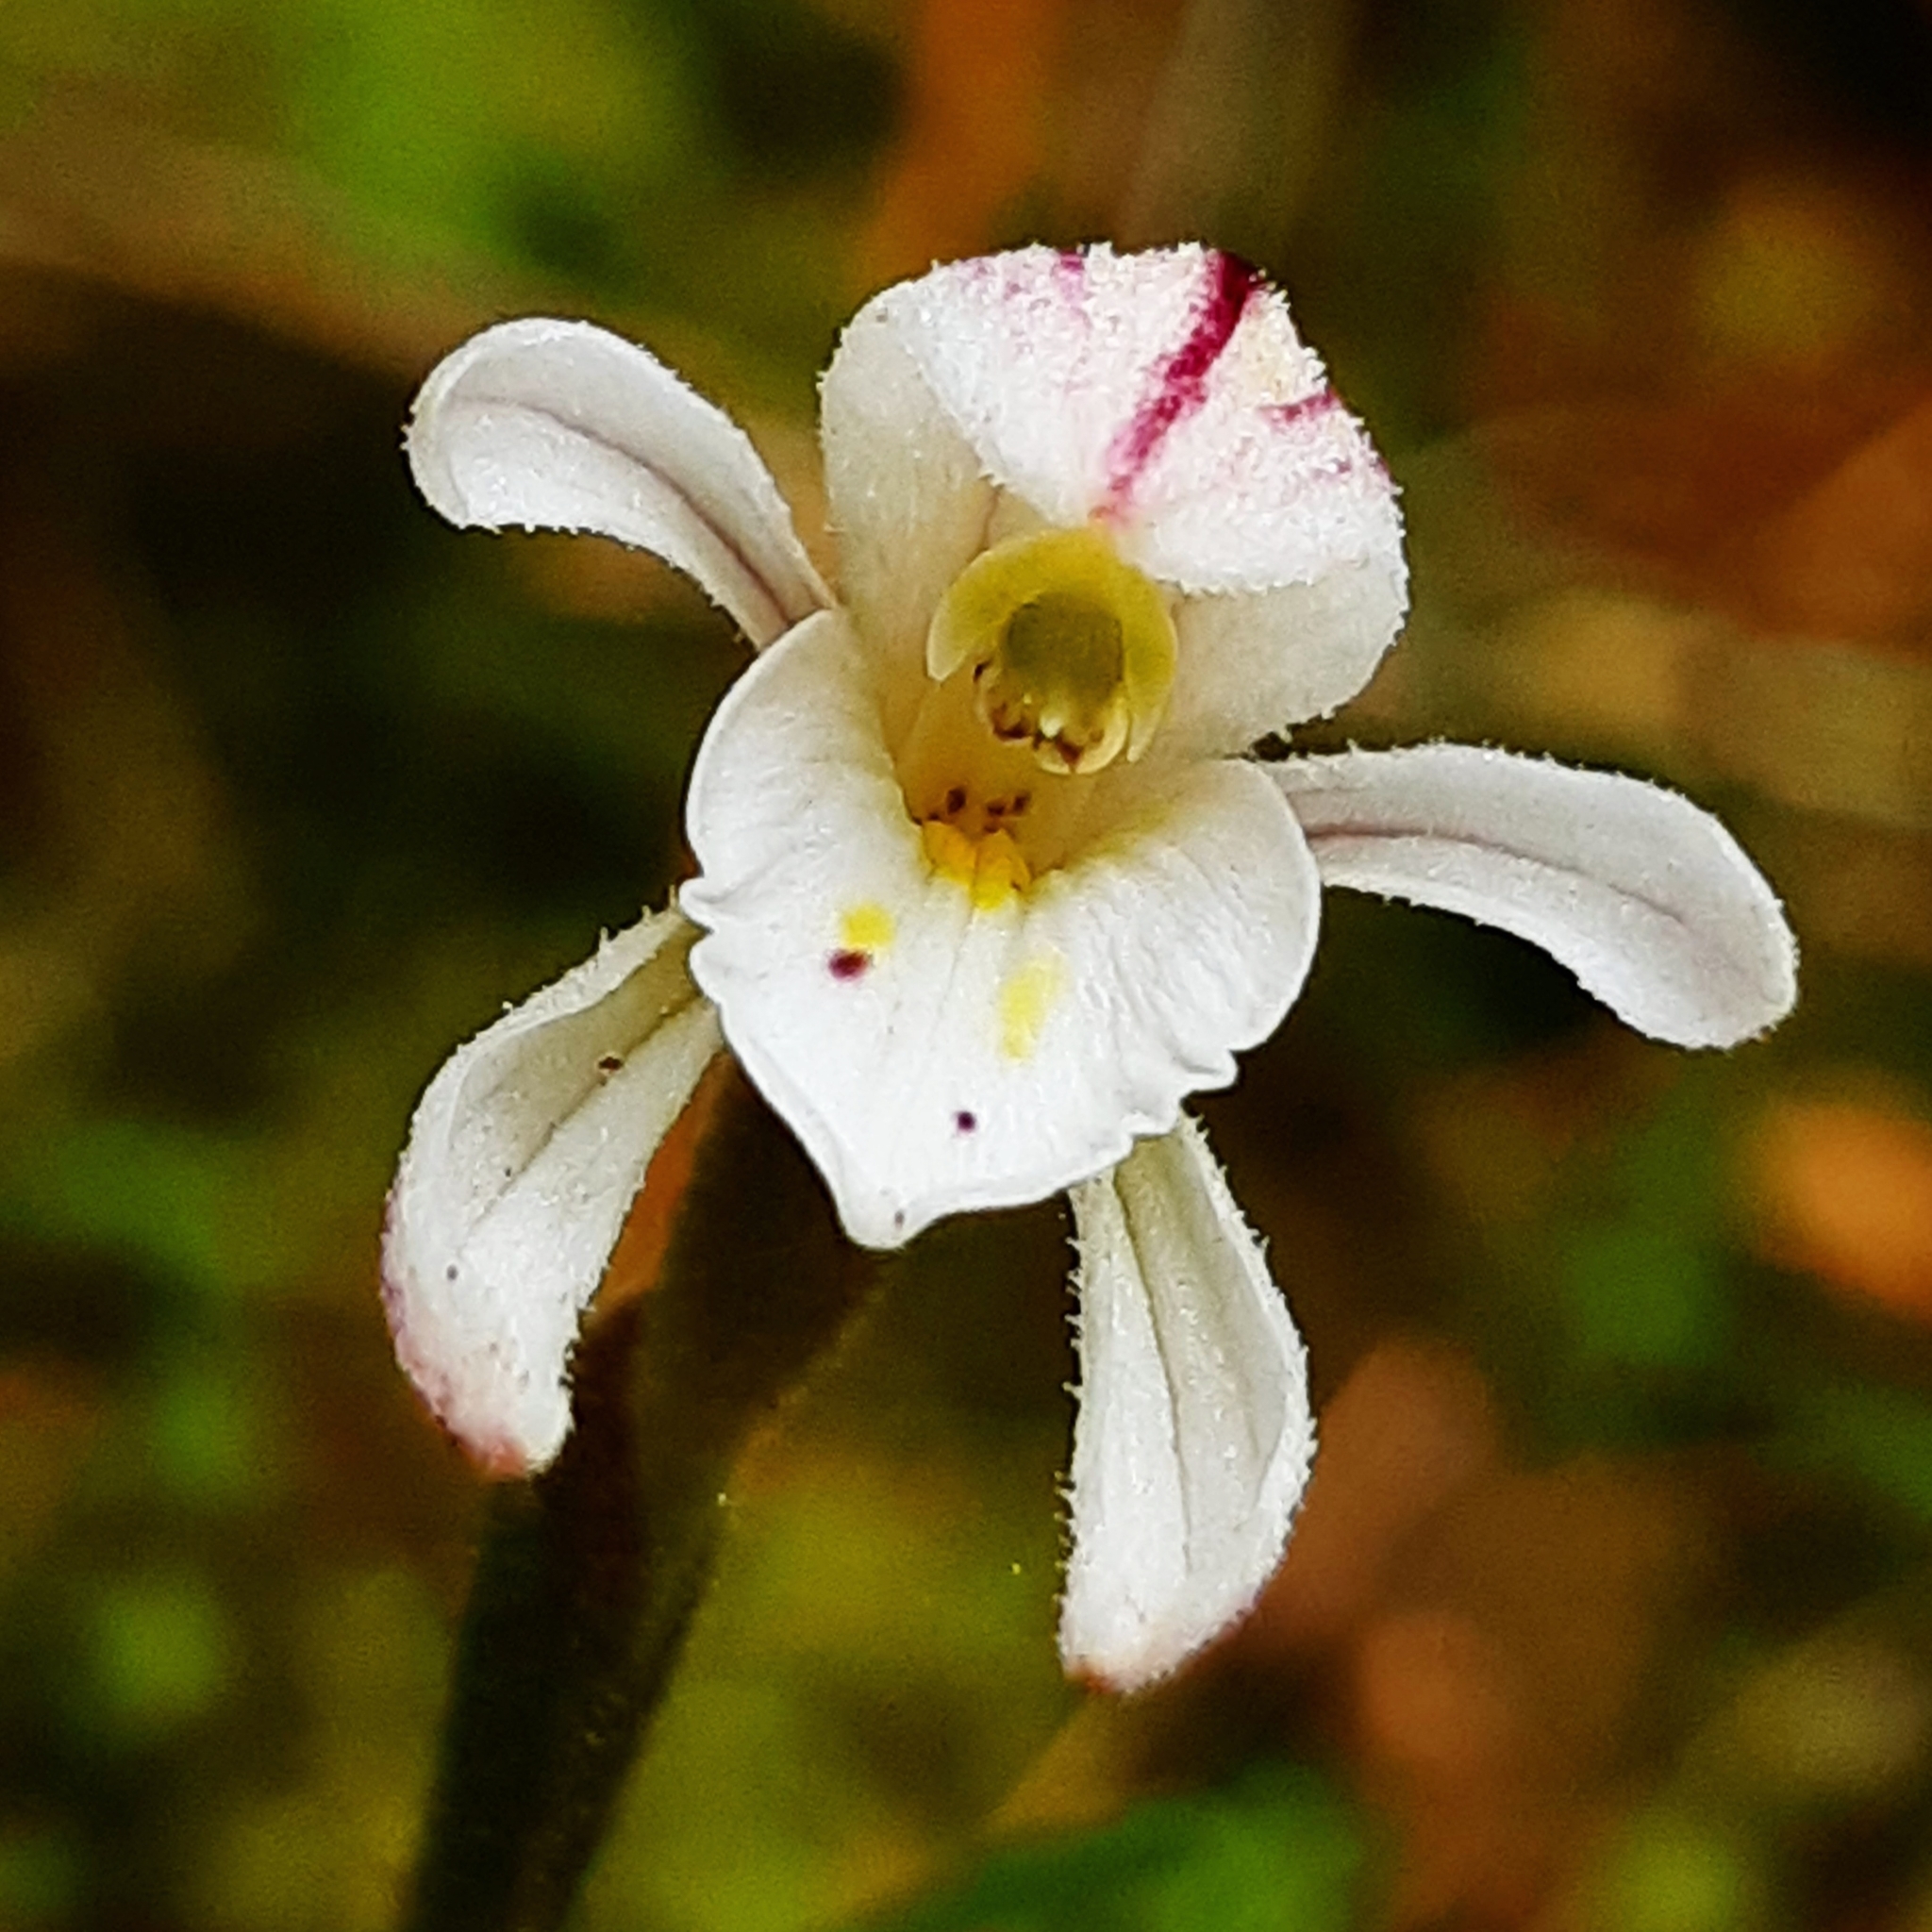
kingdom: Plantae
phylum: Tracheophyta
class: Liliopsida
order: Asparagales
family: Orchidaceae
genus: Aporostylis
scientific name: Aporostylis bifolia
